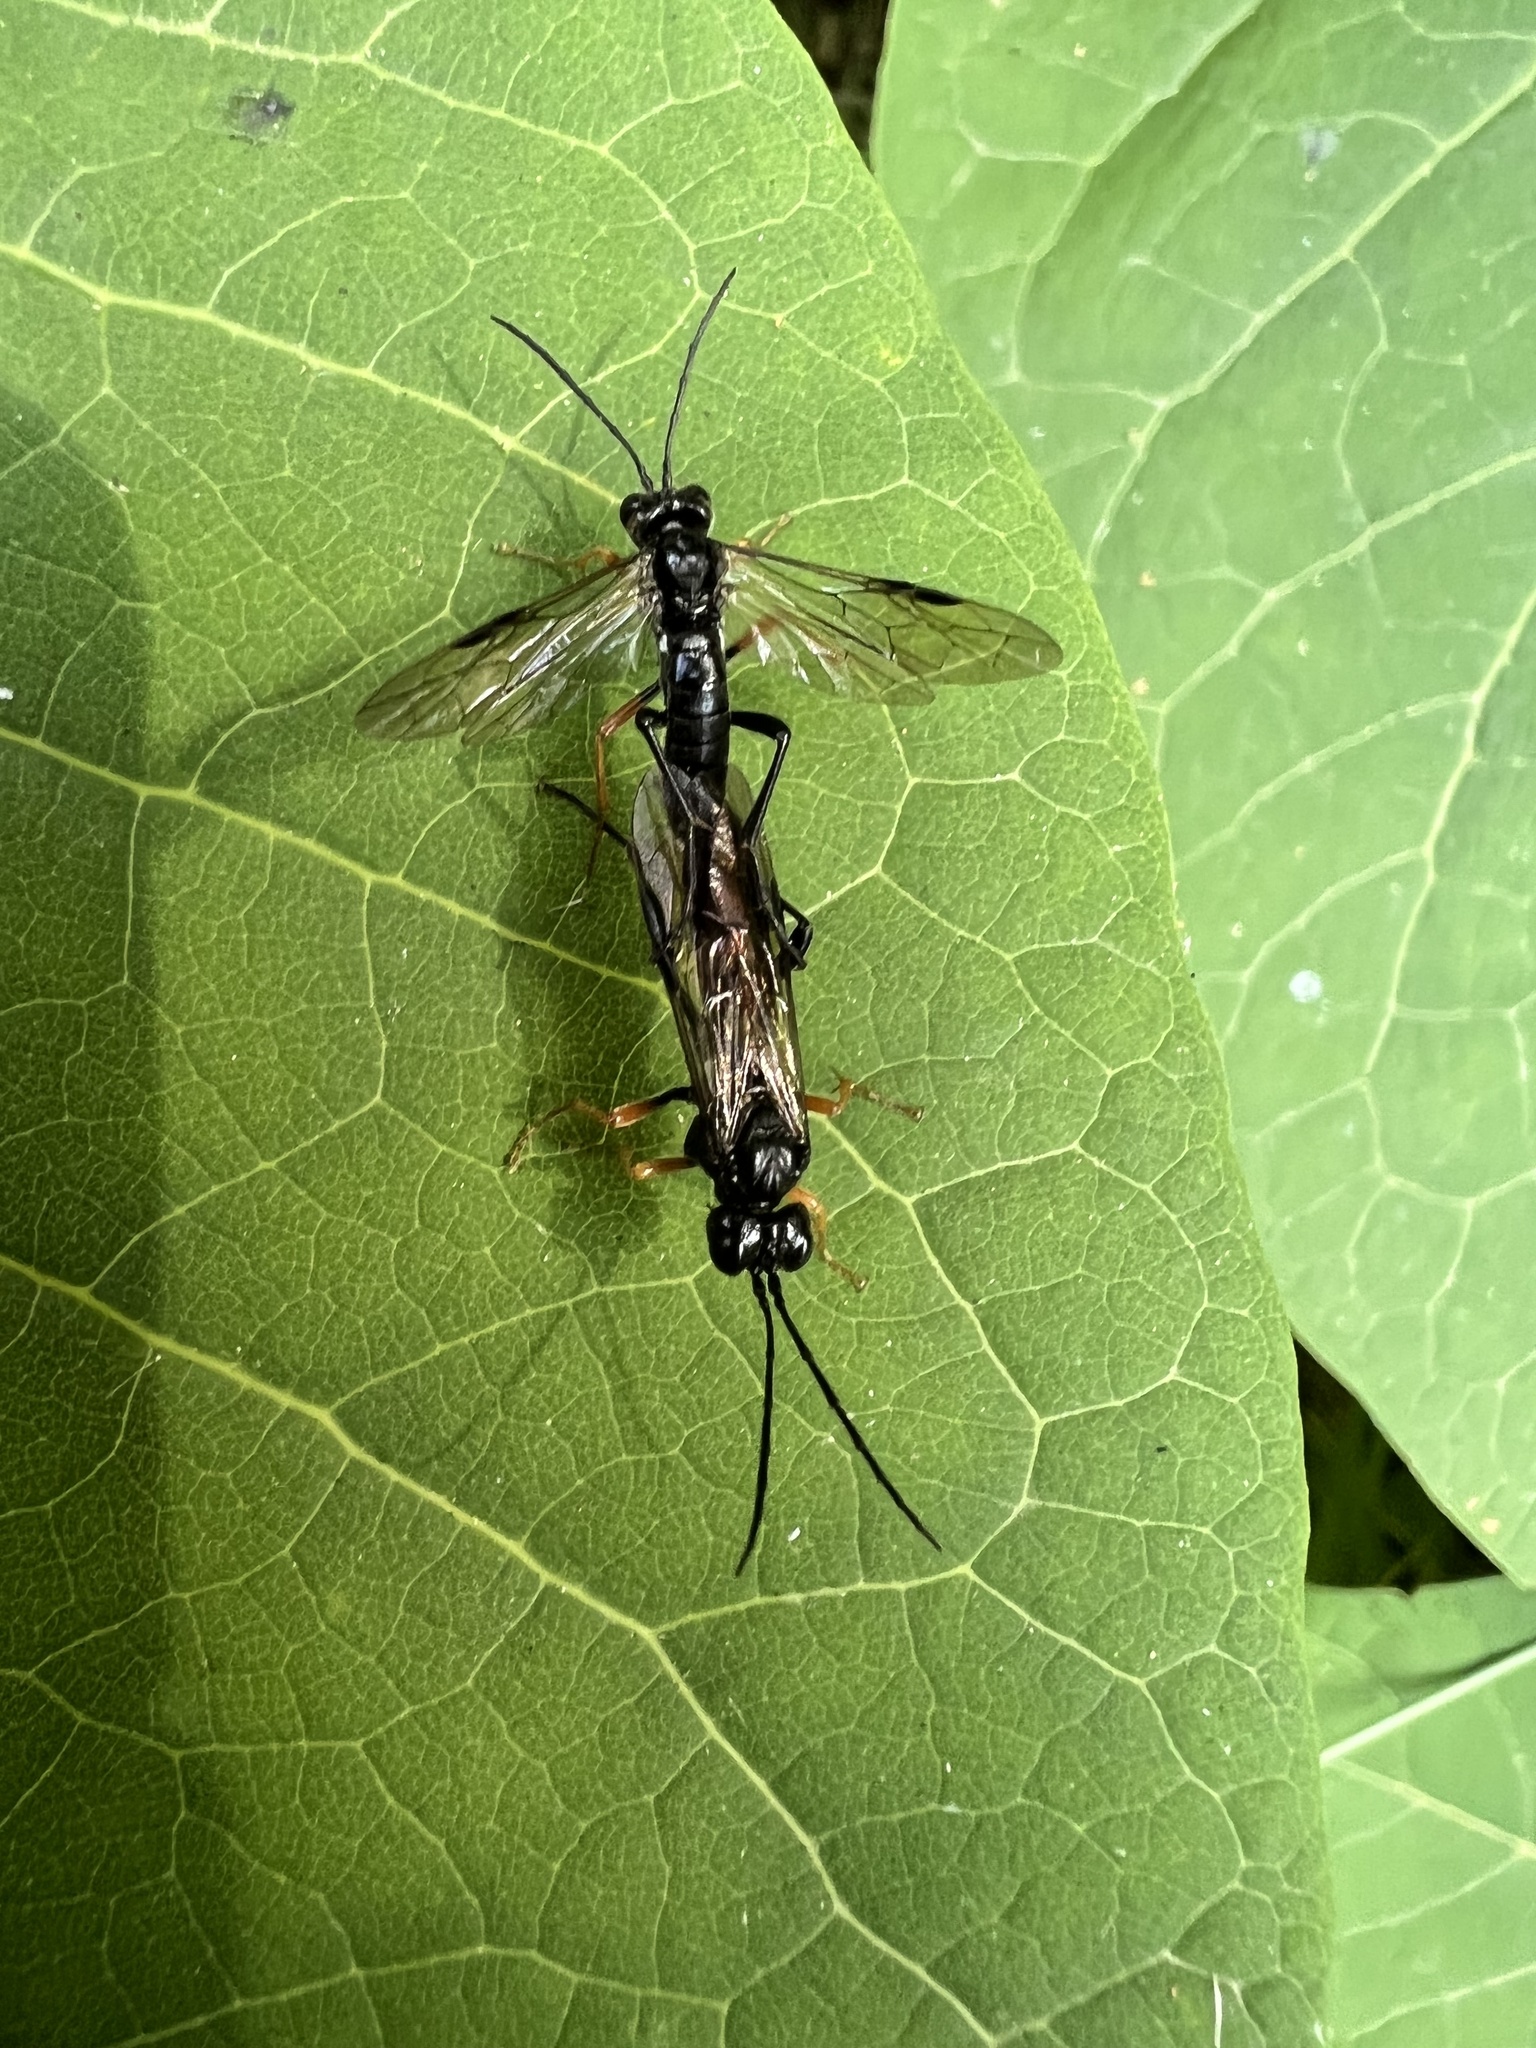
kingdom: Animalia
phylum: Arthropoda
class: Insecta
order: Hymenoptera
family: Tenthredinidae
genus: Tenthredo
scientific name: Tenthredo mandibularis
